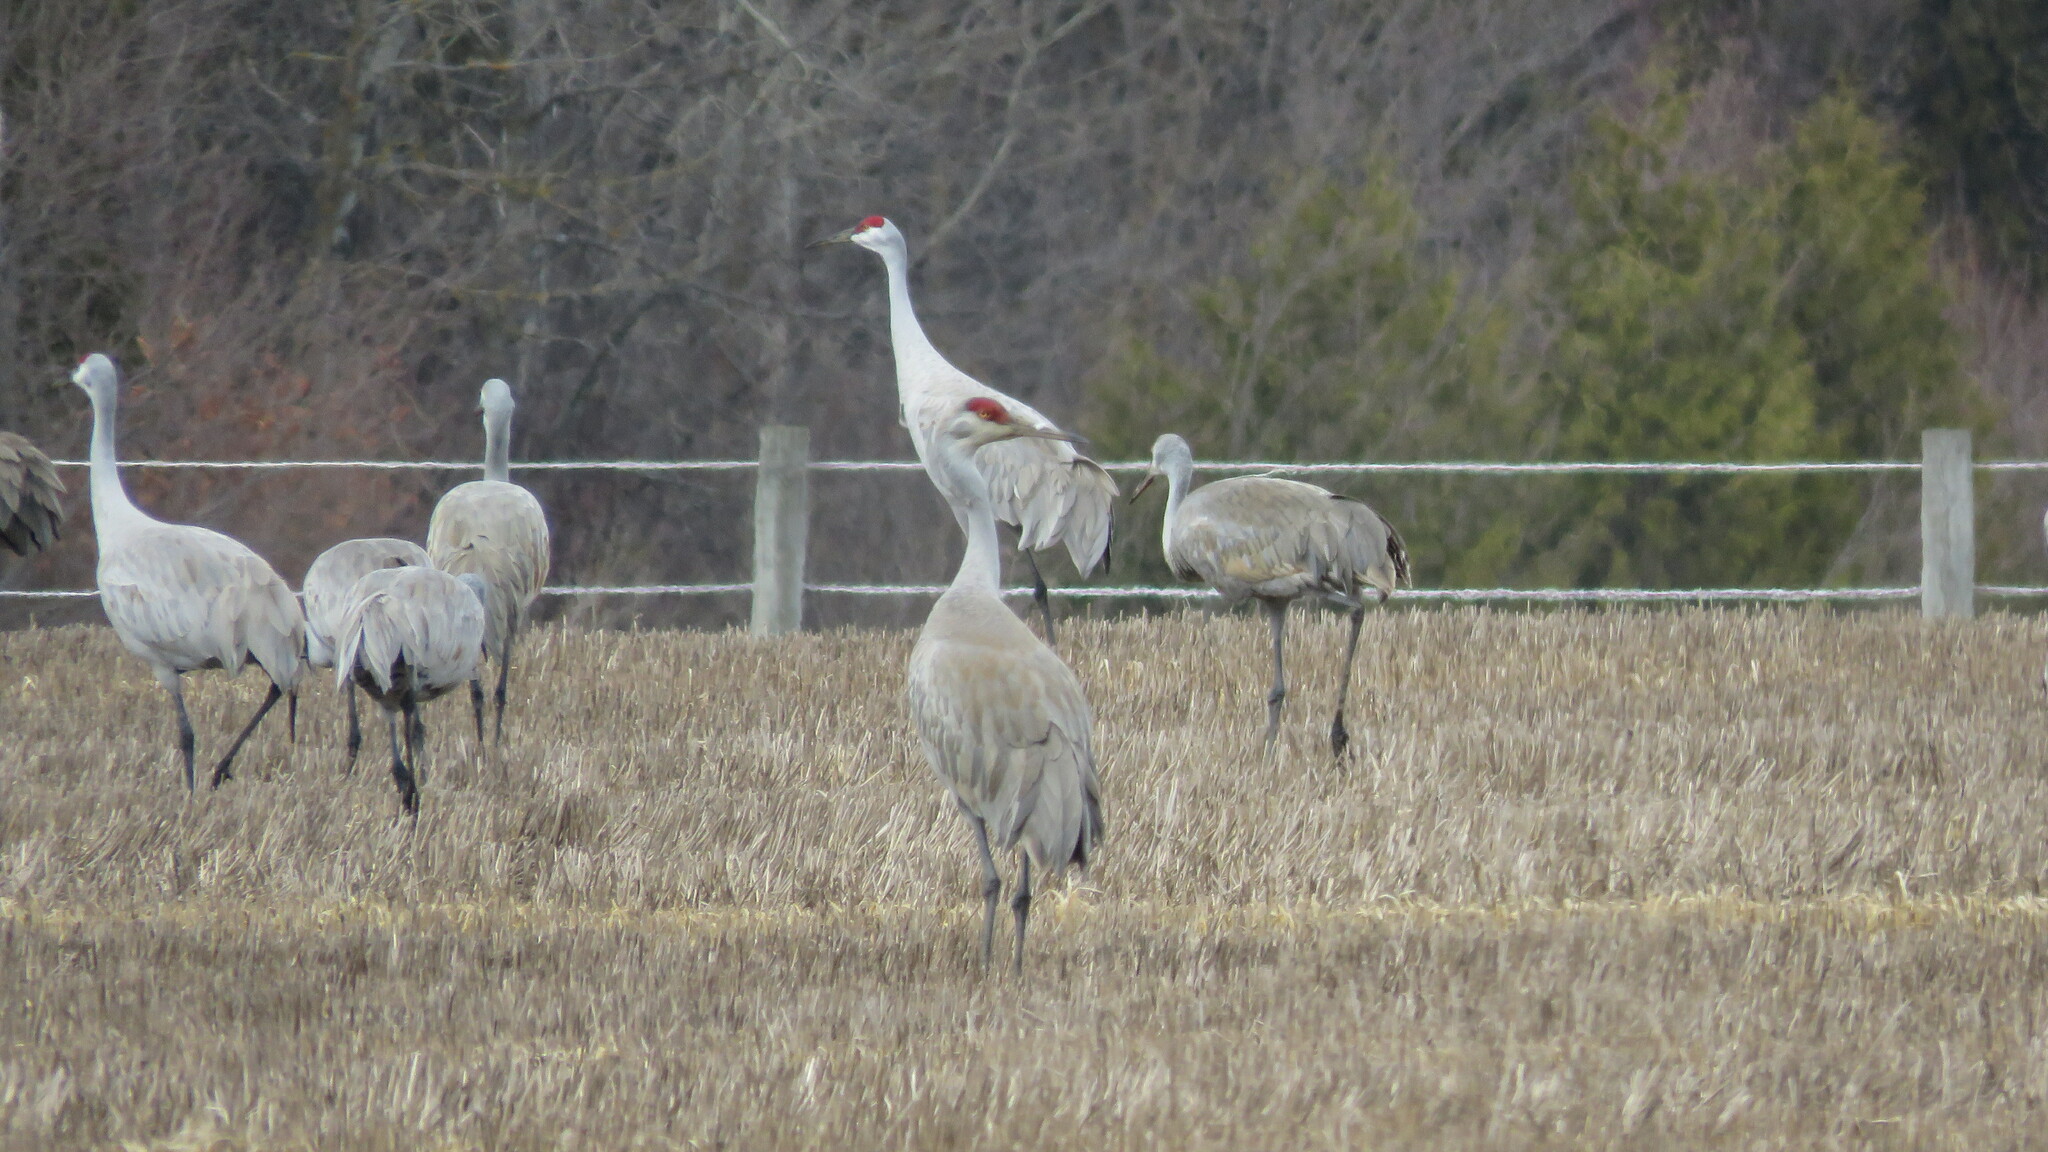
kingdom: Animalia
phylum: Chordata
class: Aves
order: Gruiformes
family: Gruidae
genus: Grus
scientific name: Grus canadensis
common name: Sandhill crane
